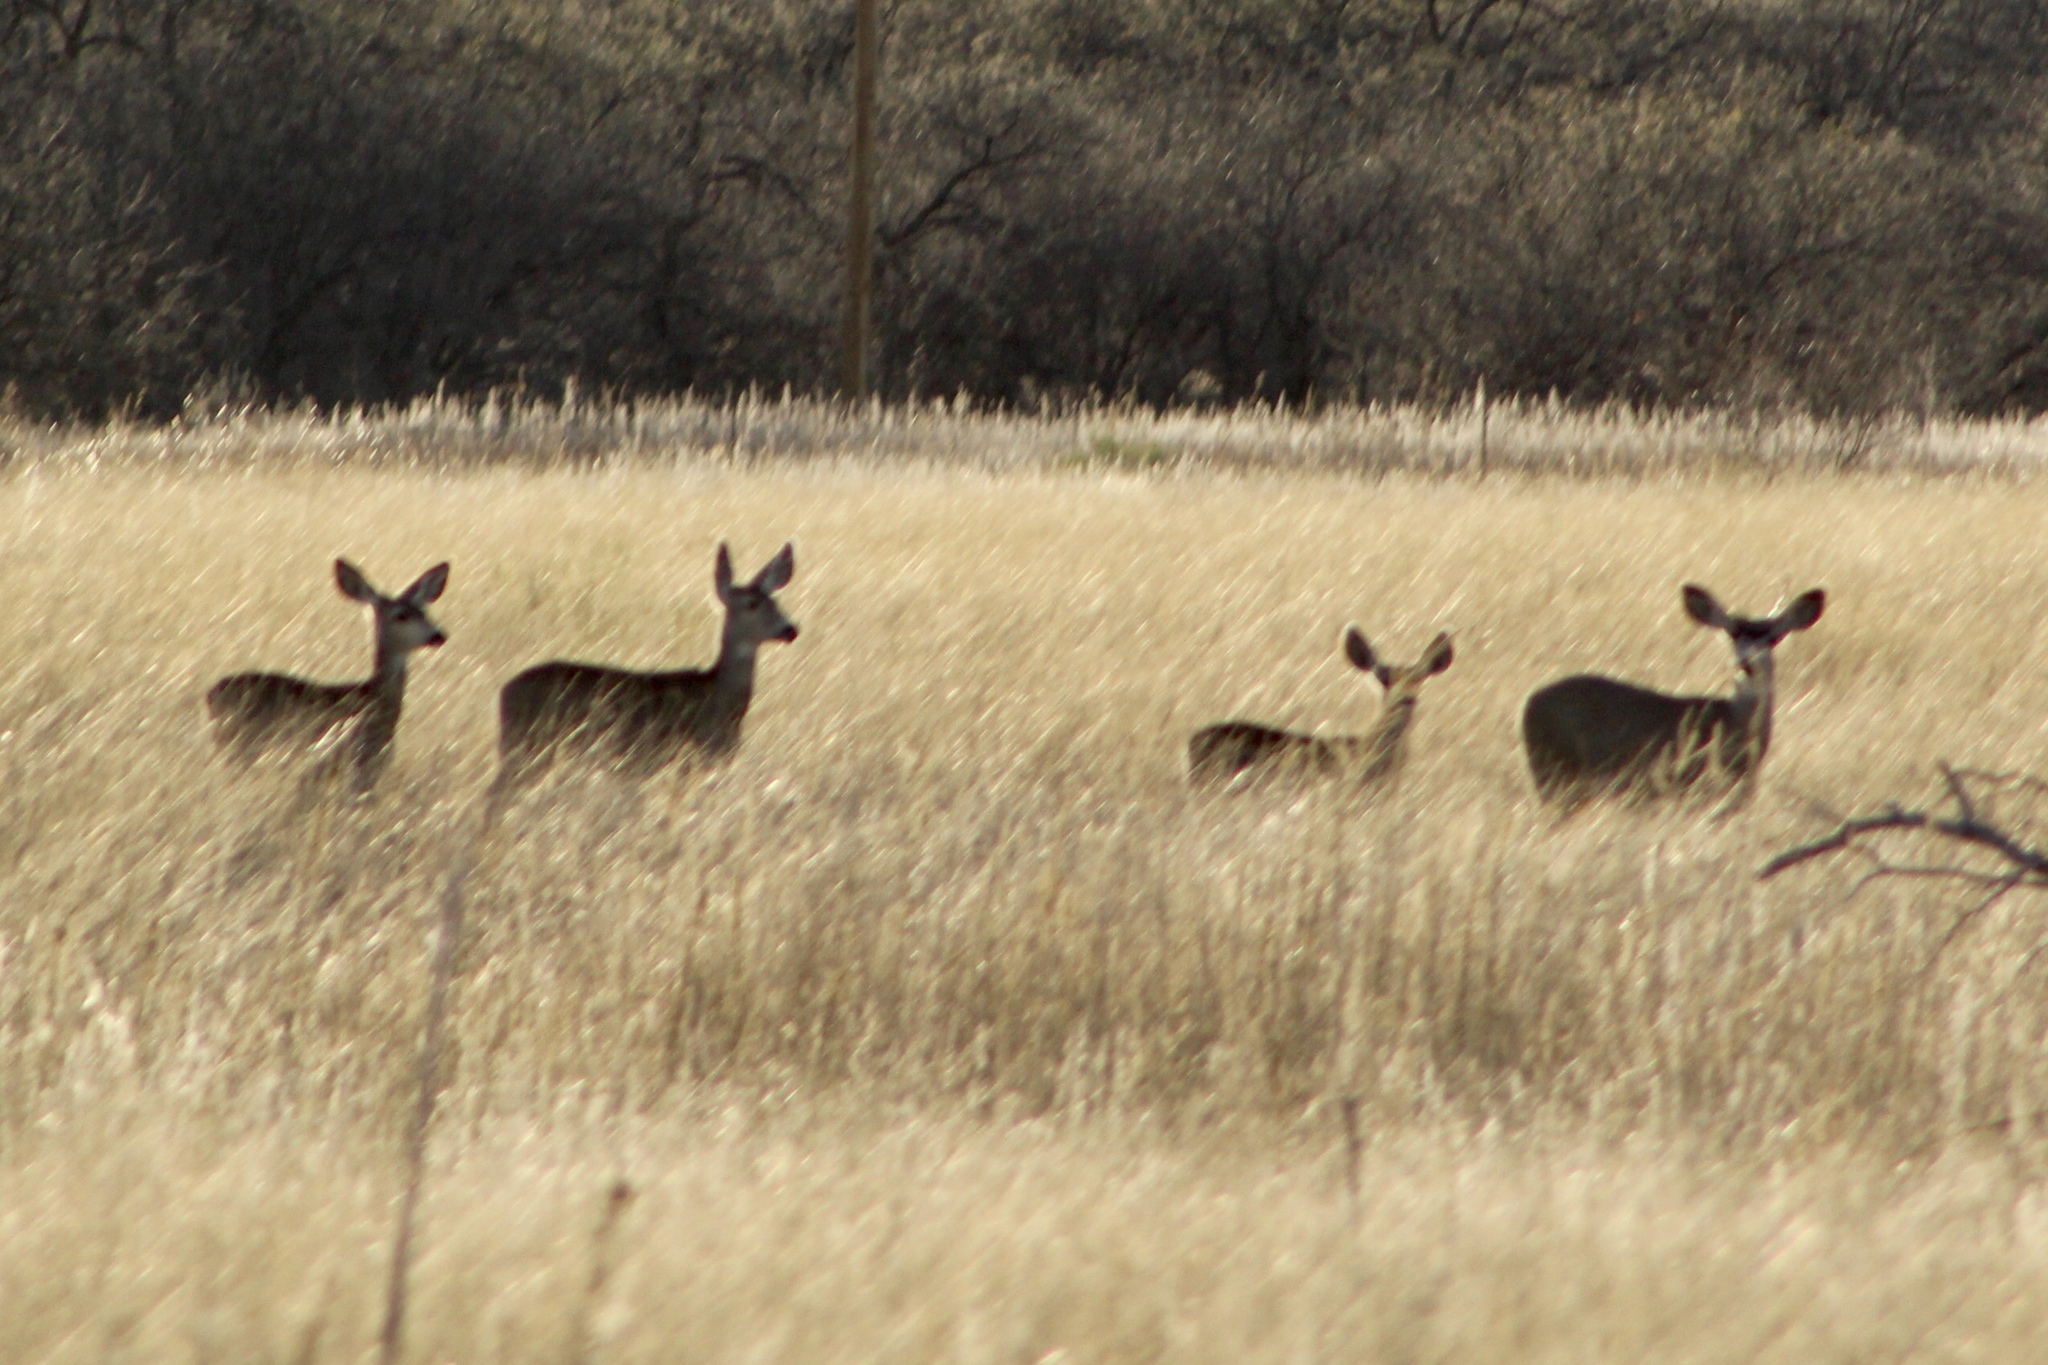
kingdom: Animalia
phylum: Chordata
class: Mammalia
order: Artiodactyla
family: Cervidae
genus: Odocoileus
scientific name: Odocoileus hemionus
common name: Mule deer
